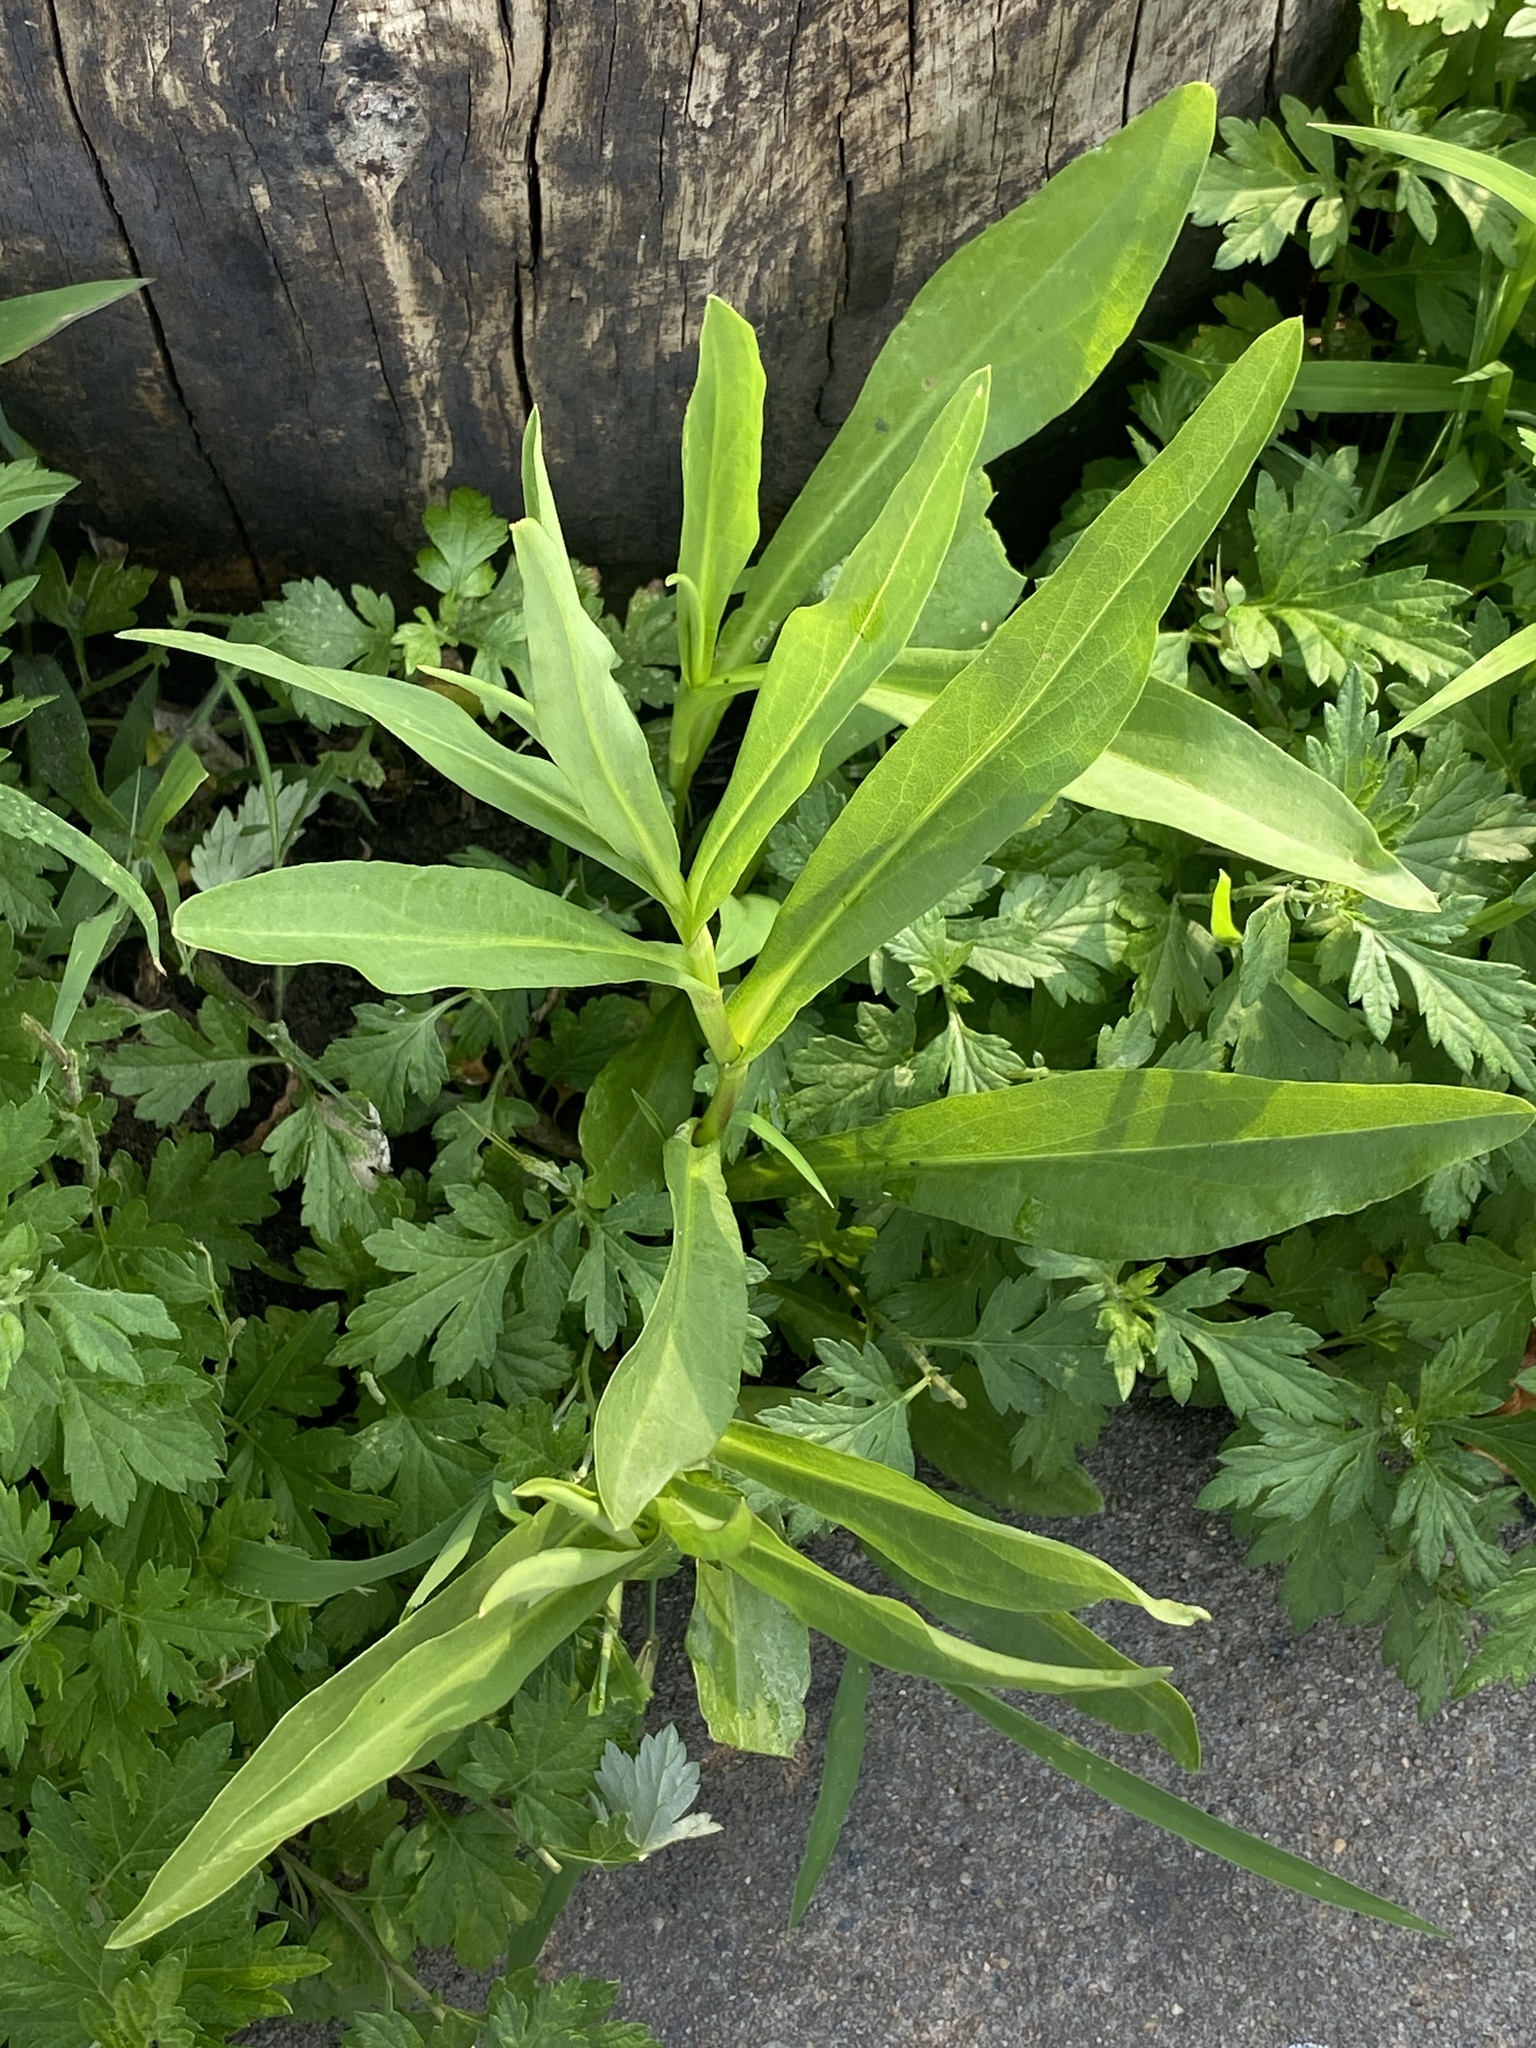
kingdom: Plantae
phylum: Tracheophyta
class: Magnoliopsida
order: Asterales
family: Asteraceae
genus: Solidago
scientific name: Solidago sempervirens
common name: Salt-marsh goldenrod
